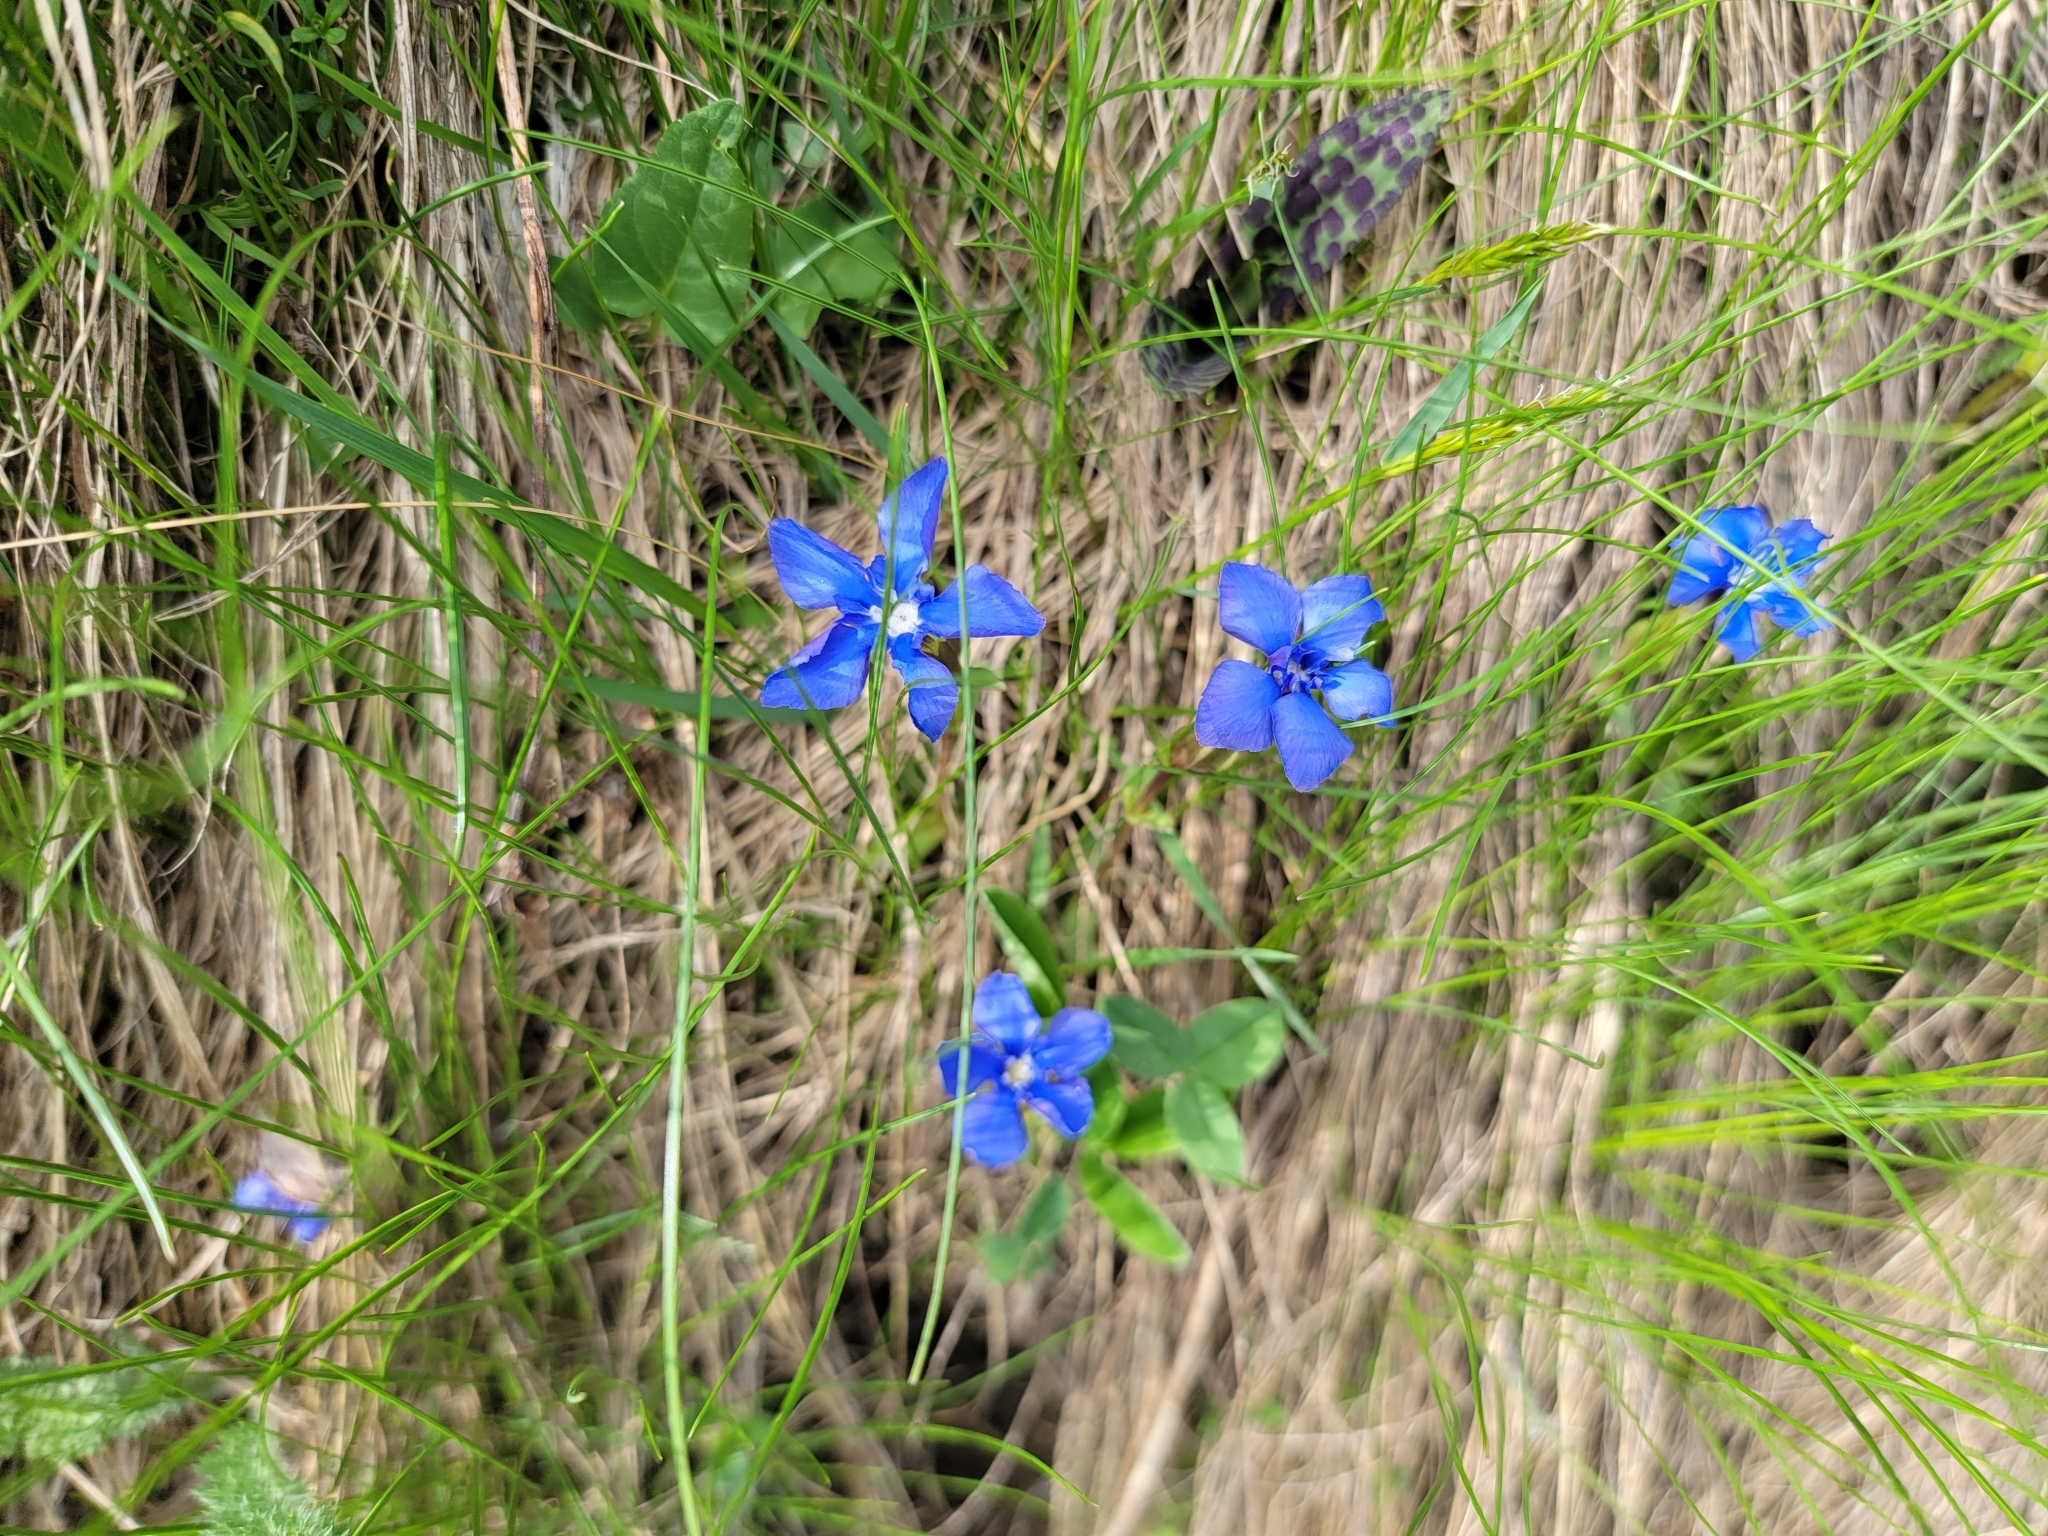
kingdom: Plantae
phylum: Tracheophyta
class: Magnoliopsida
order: Gentianales
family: Gentianaceae
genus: Gentiana
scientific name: Gentiana verna
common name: Spring gentian
